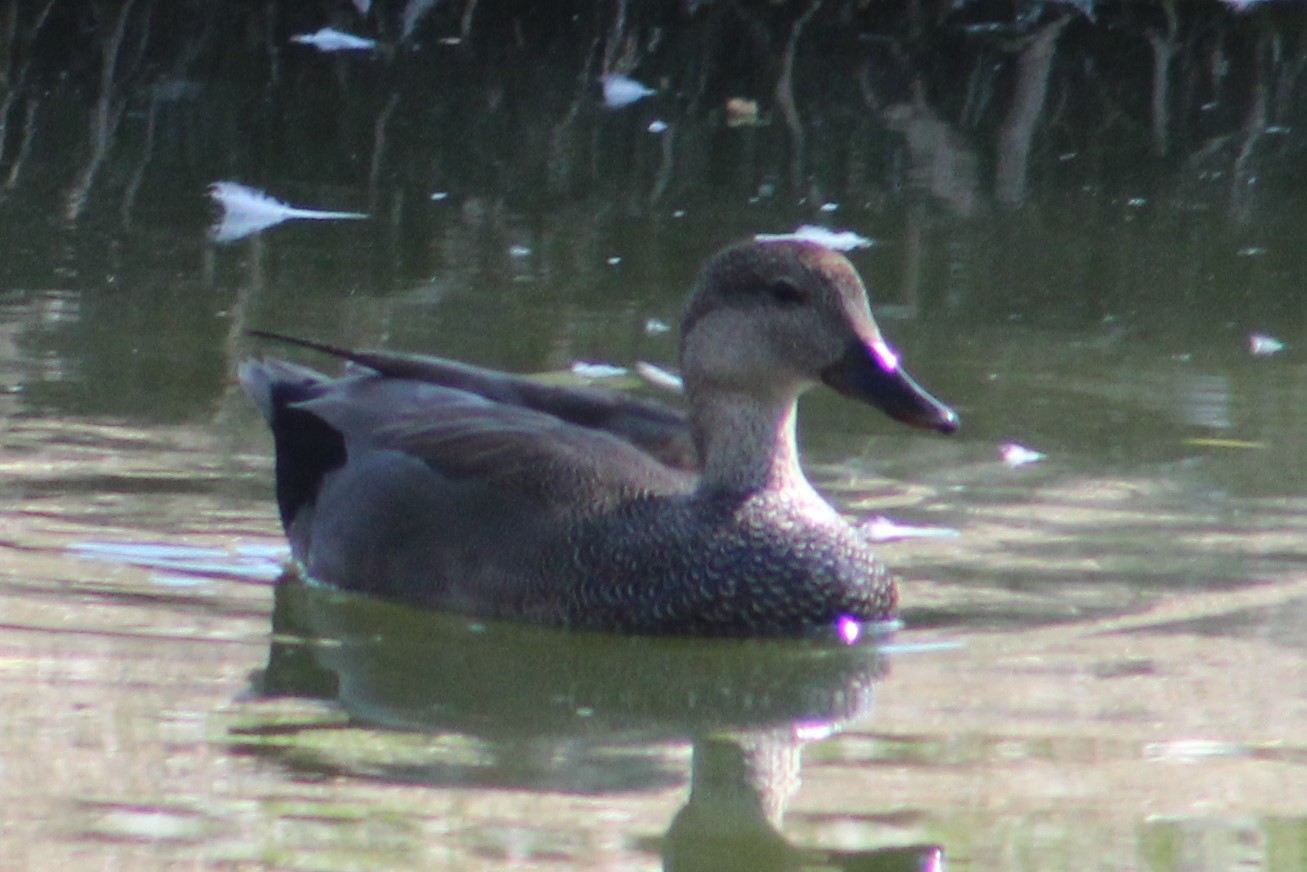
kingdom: Animalia
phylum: Chordata
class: Aves
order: Anseriformes
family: Anatidae
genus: Mareca
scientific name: Mareca strepera
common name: Gadwall
